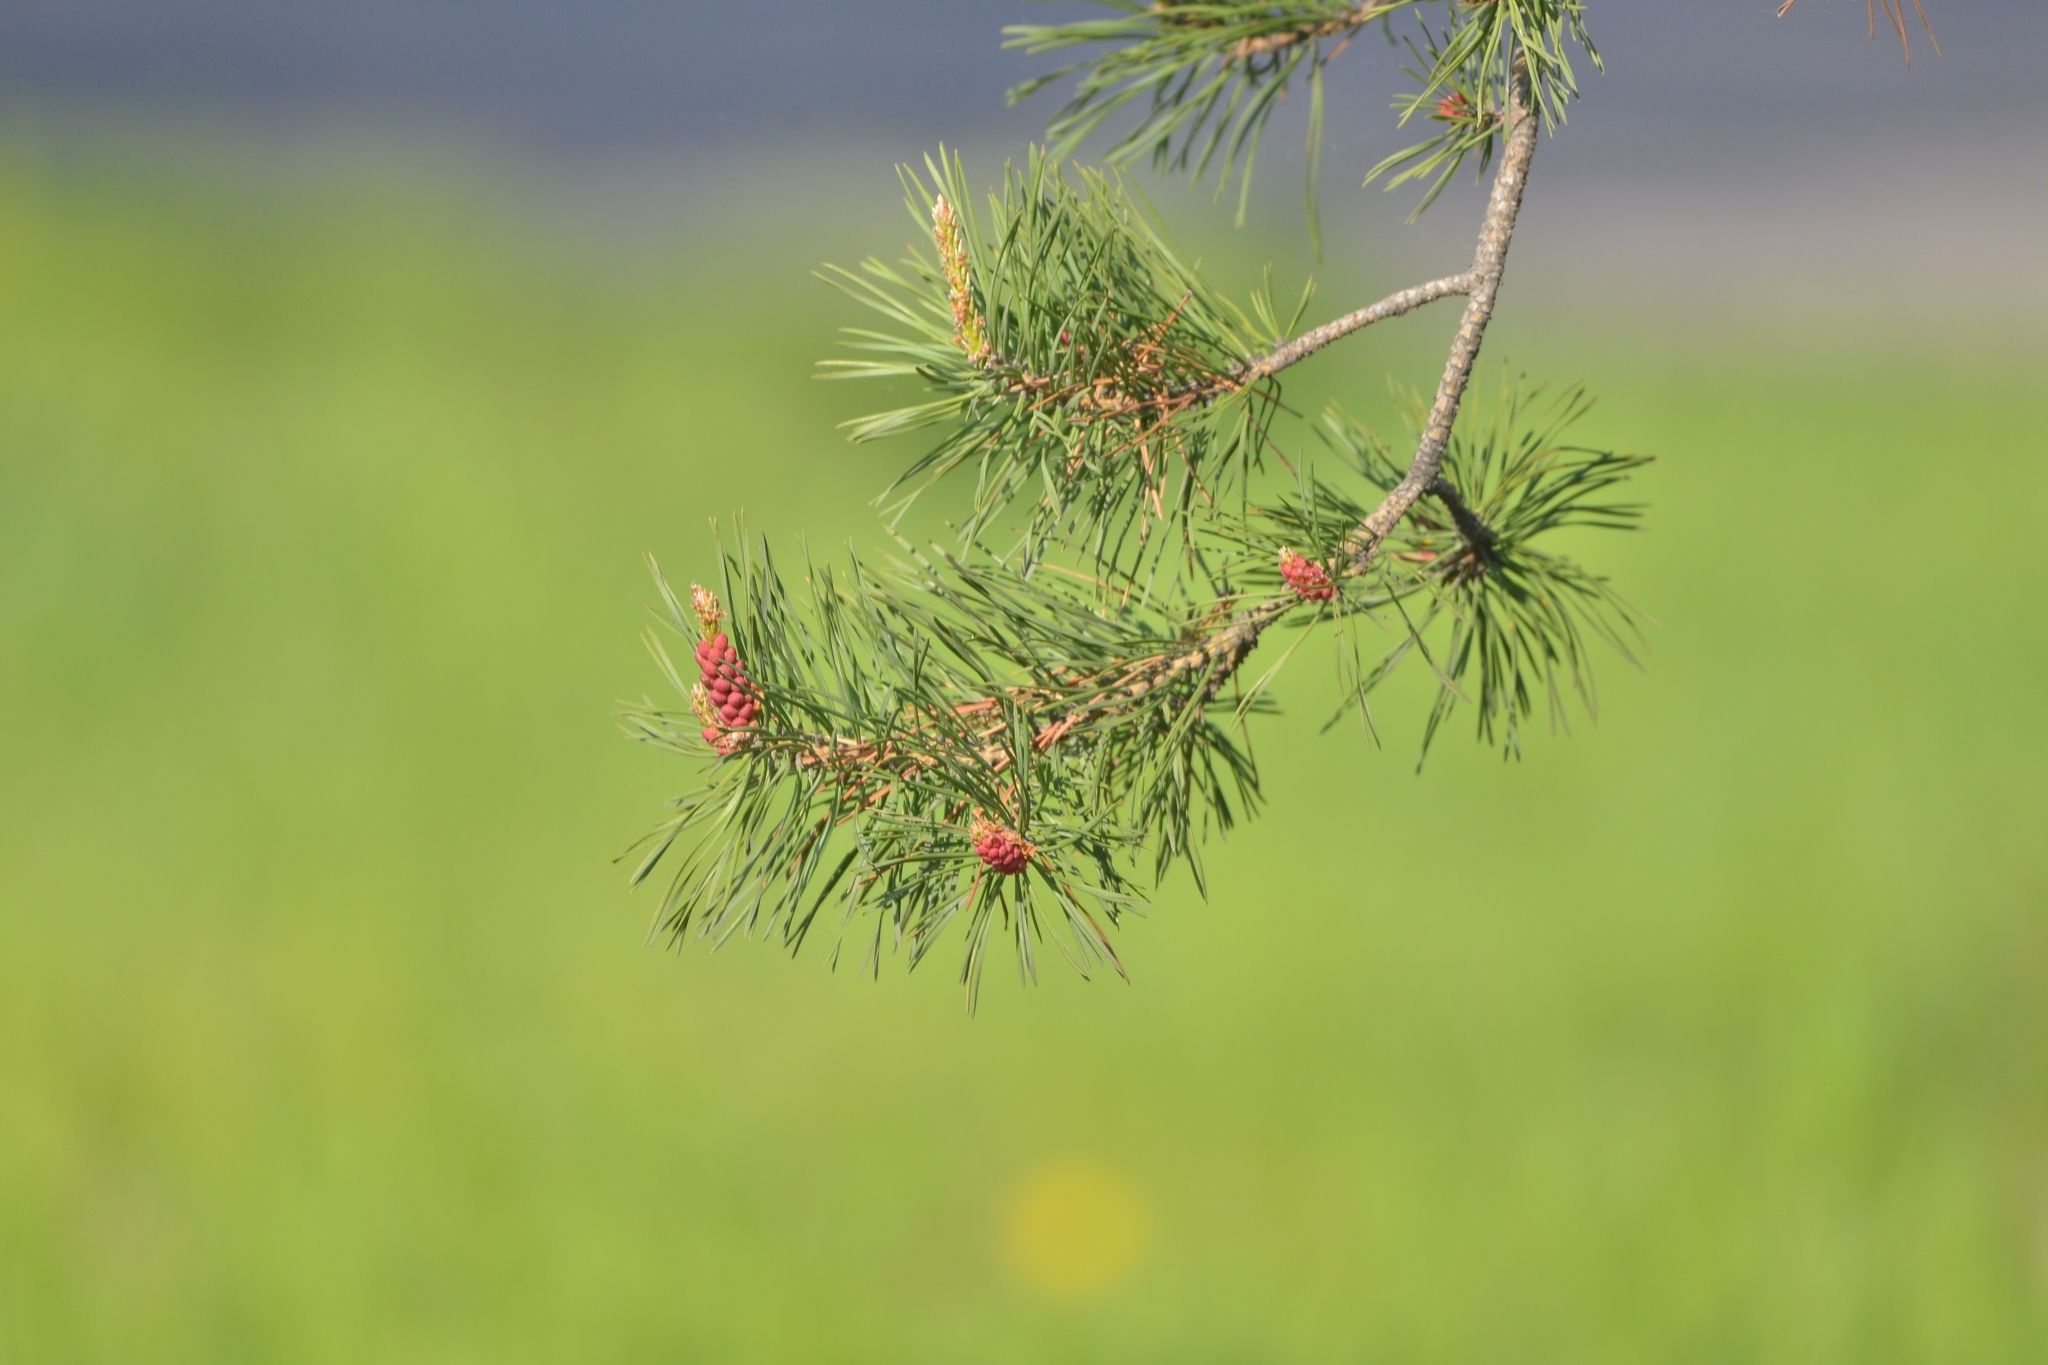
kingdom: Plantae
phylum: Tracheophyta
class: Pinopsida
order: Pinales
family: Pinaceae
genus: Pinus
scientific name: Pinus sylvestris
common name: Scots pine
